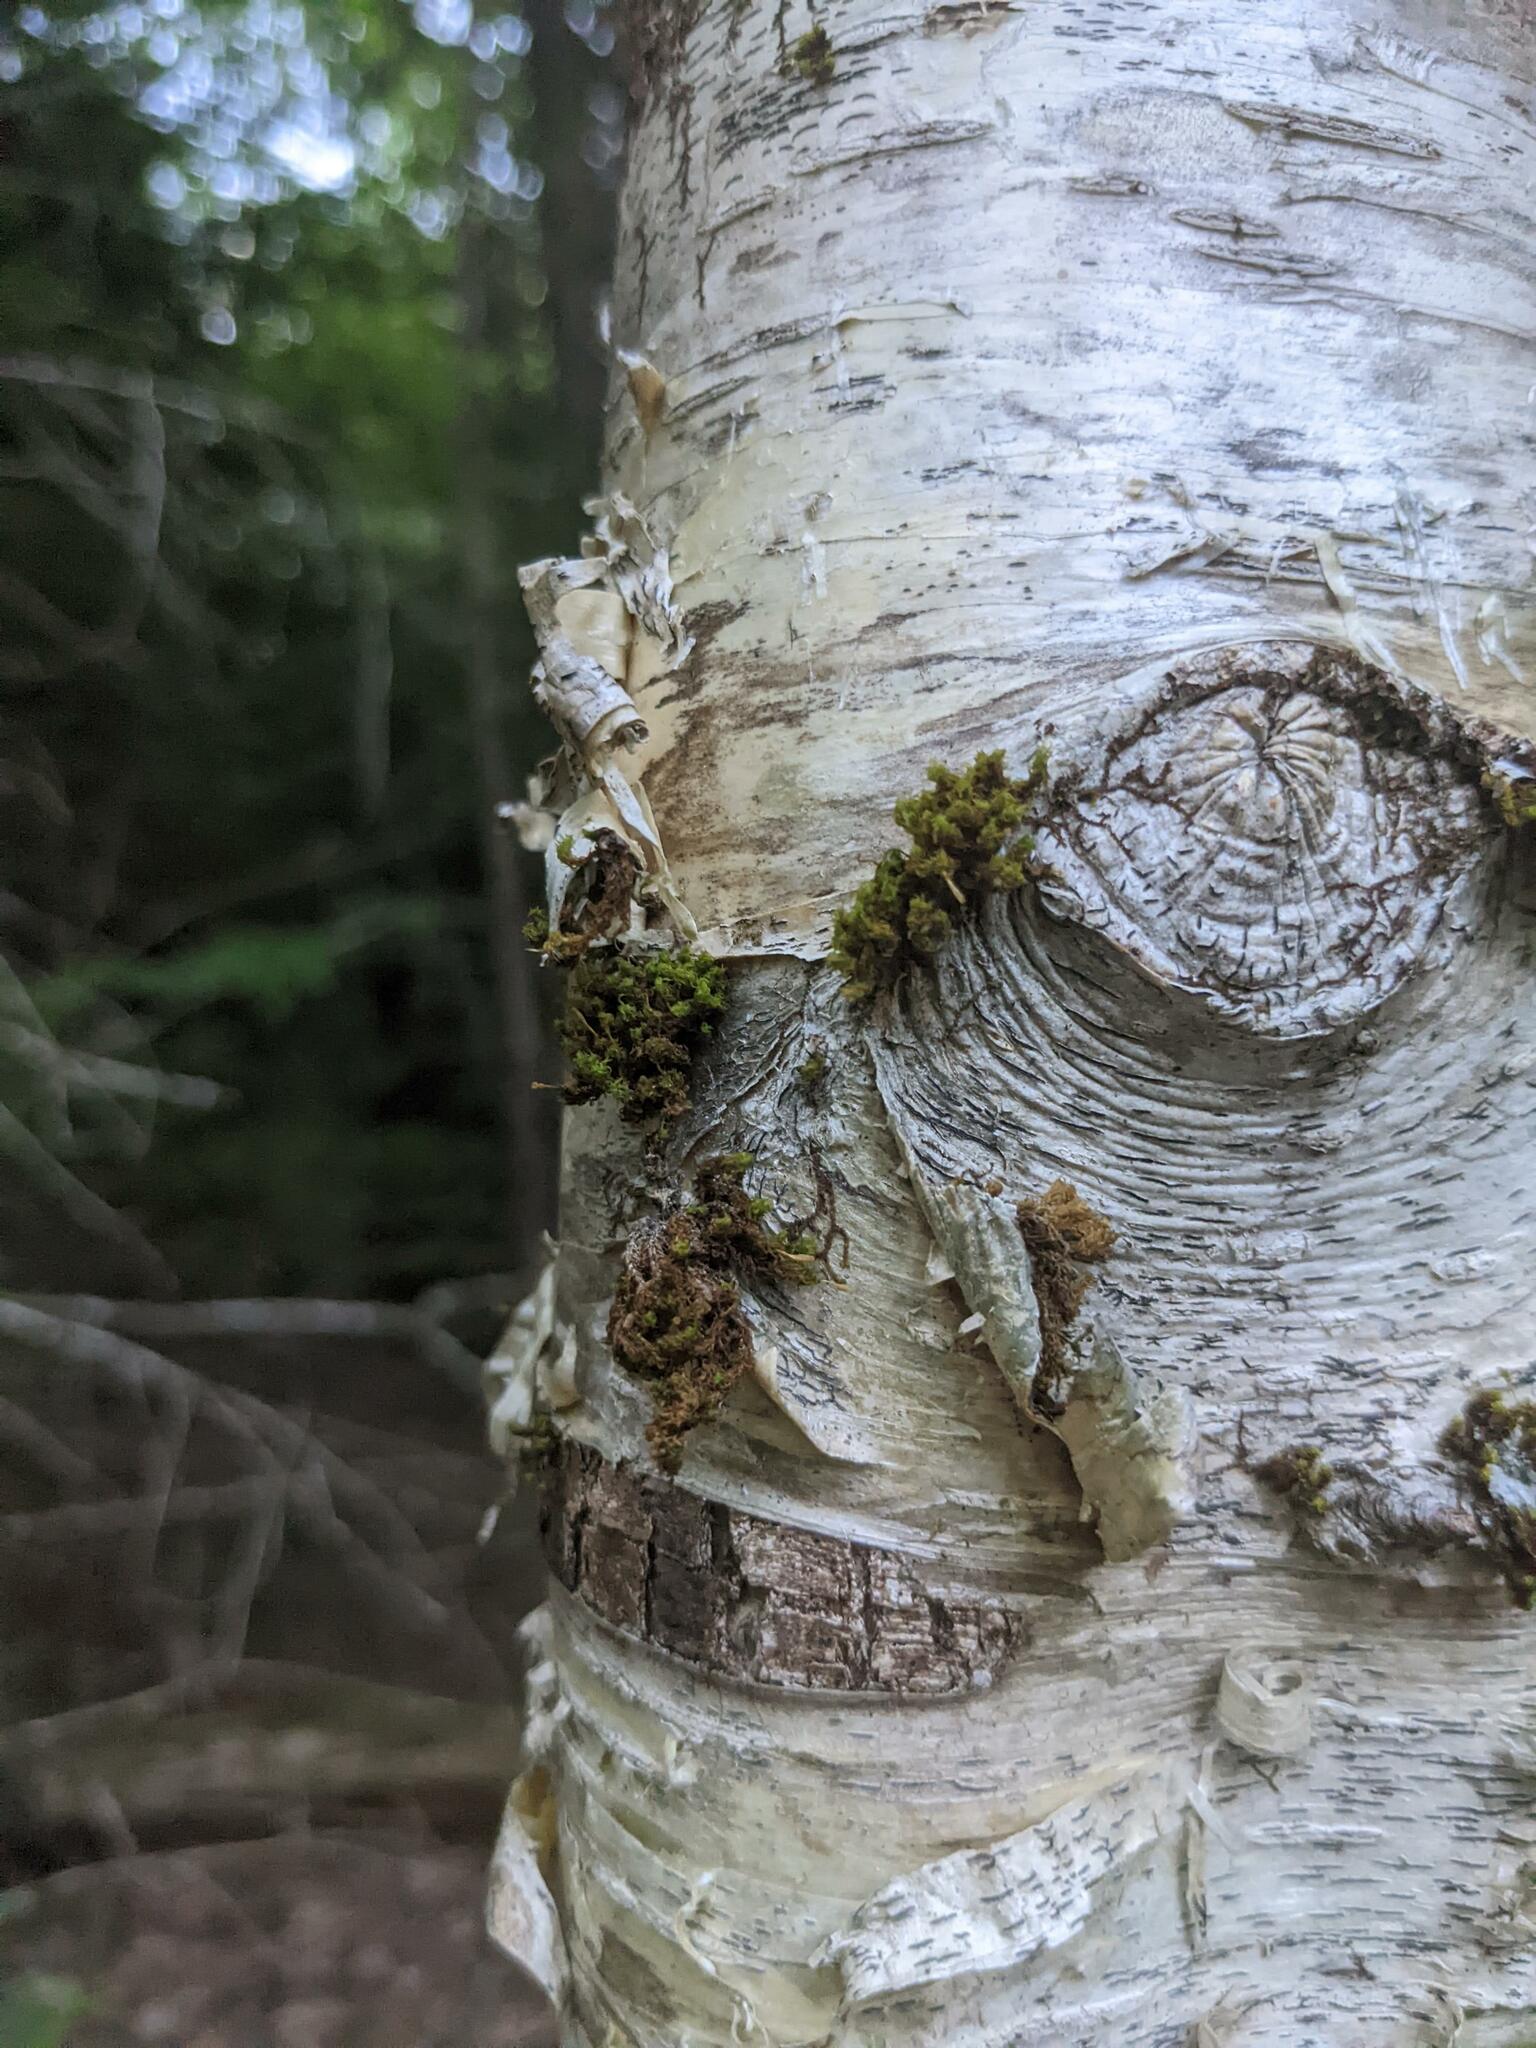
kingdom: Plantae
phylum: Bryophyta
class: Bryopsida
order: Orthotrichales
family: Orthotrichaceae
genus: Ulota
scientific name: Ulota crispa
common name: Crisped pincushion moss
